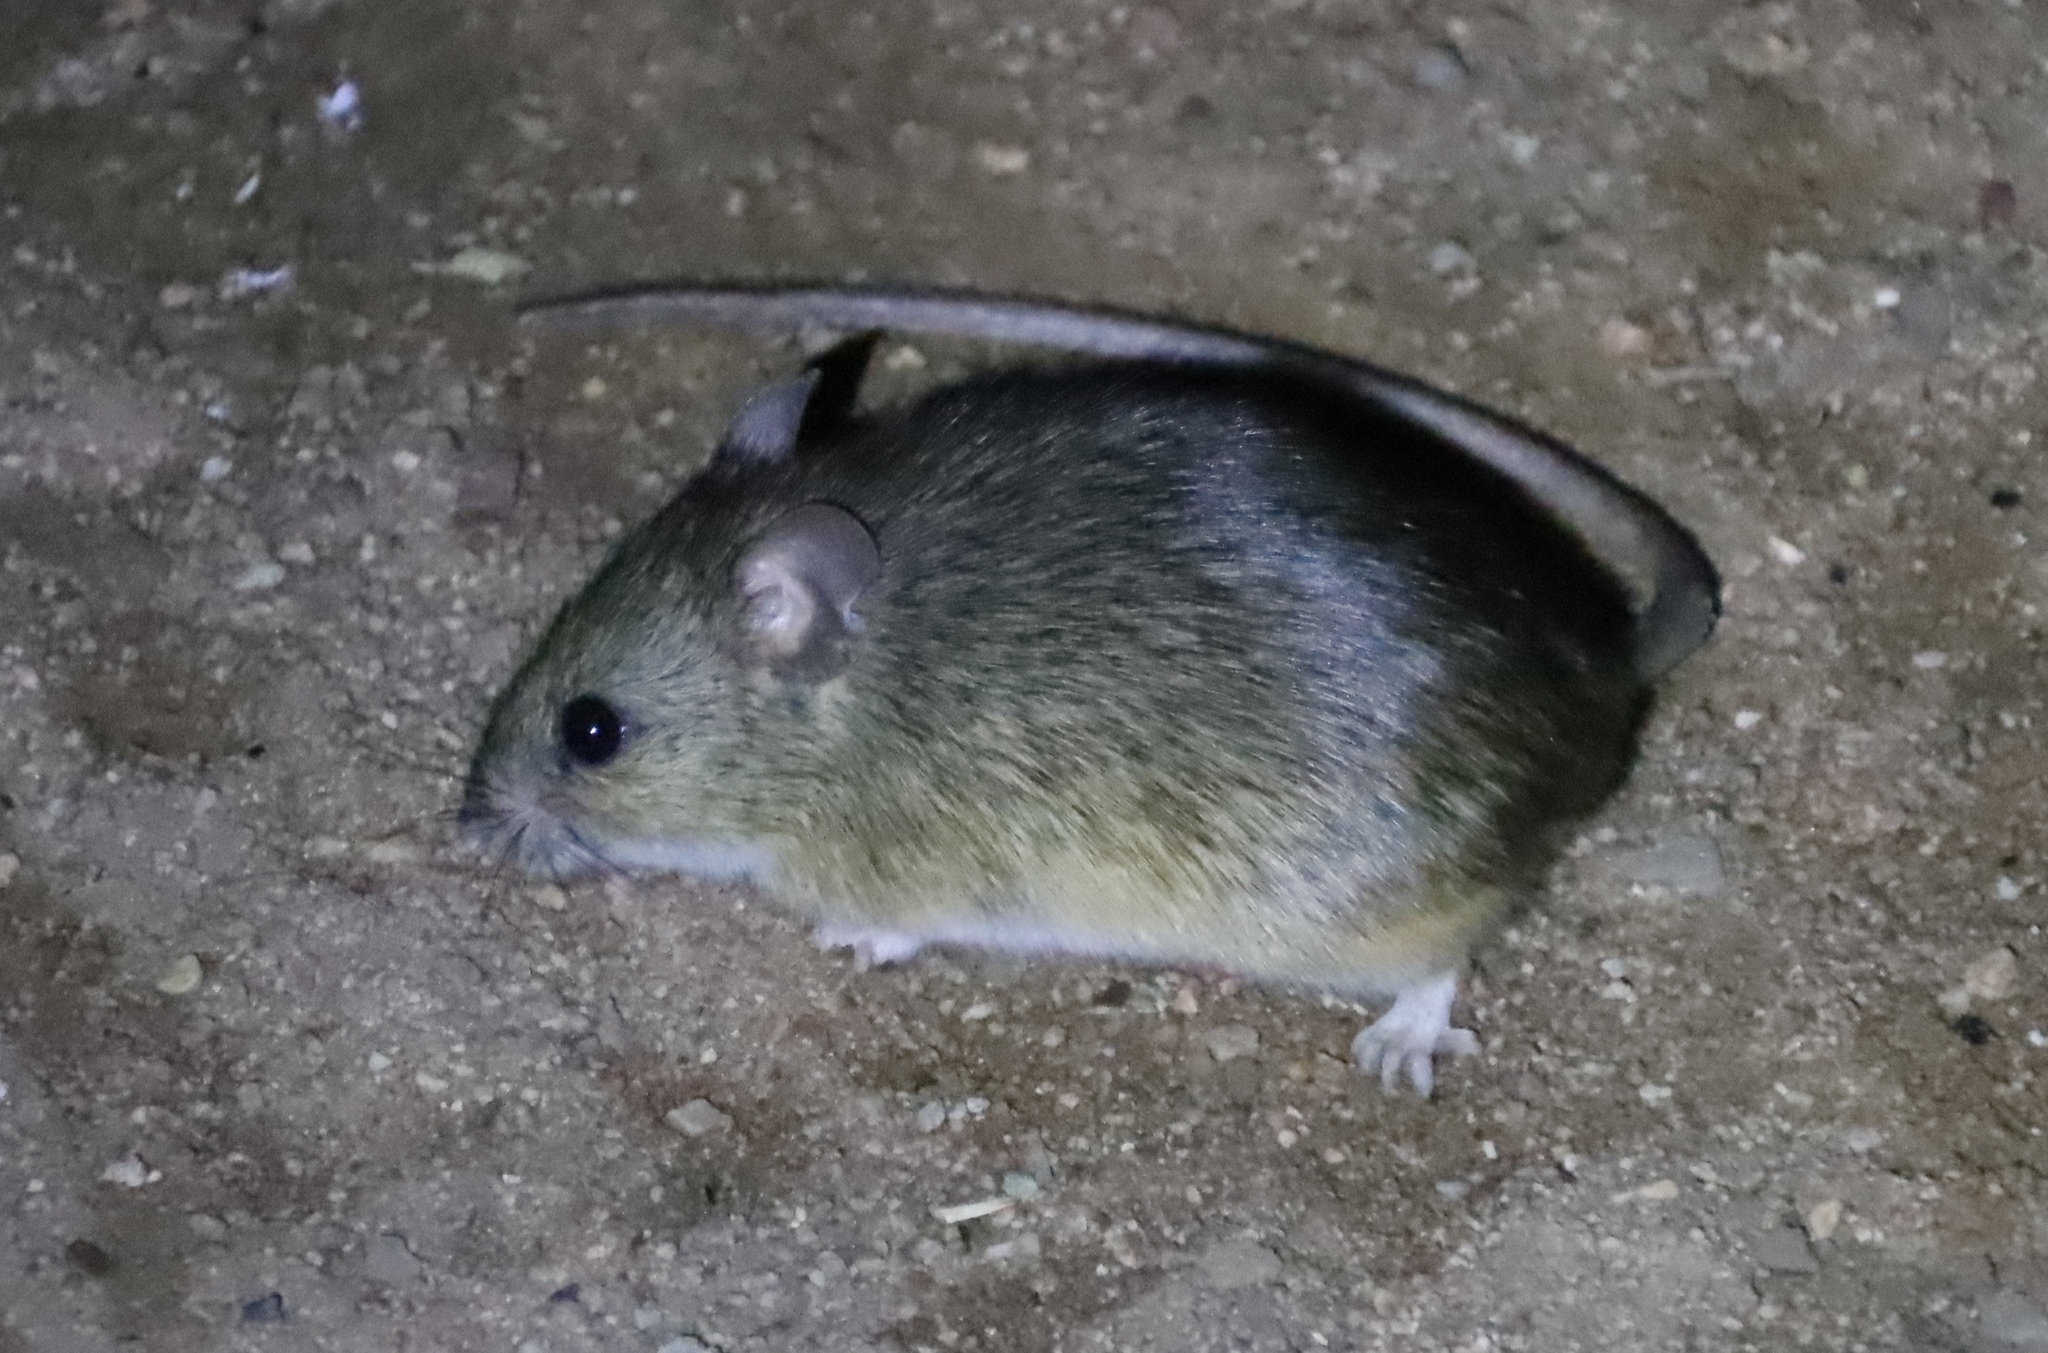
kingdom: Animalia
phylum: Chordata
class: Mammalia
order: Rodentia
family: Muridae
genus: Micaelamys
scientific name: Micaelamys namaquensis
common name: Namaqua micaelamys
